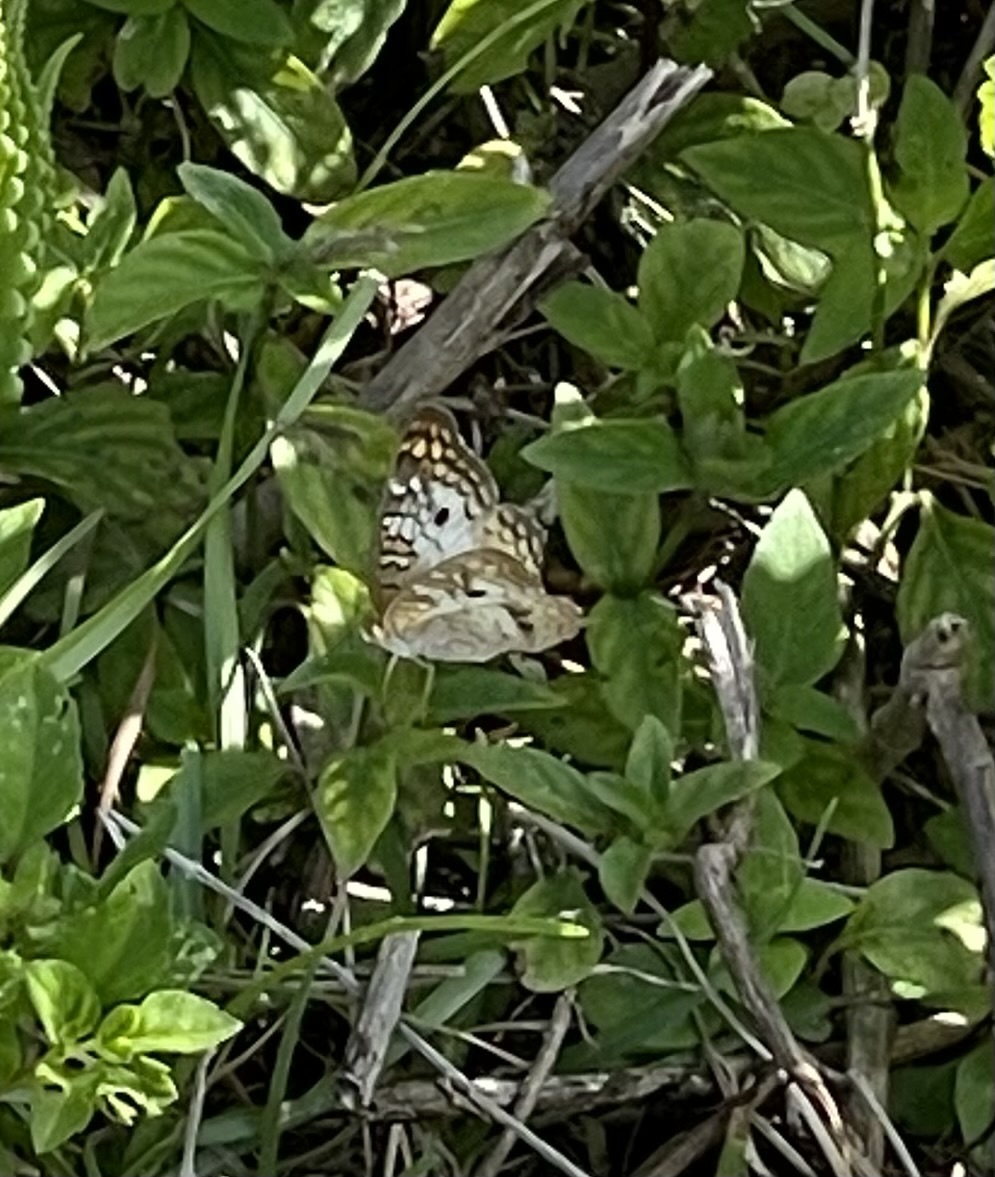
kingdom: Animalia
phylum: Arthropoda
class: Insecta
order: Lepidoptera
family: Nymphalidae
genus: Anartia
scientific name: Anartia jatrophae
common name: White peacock
